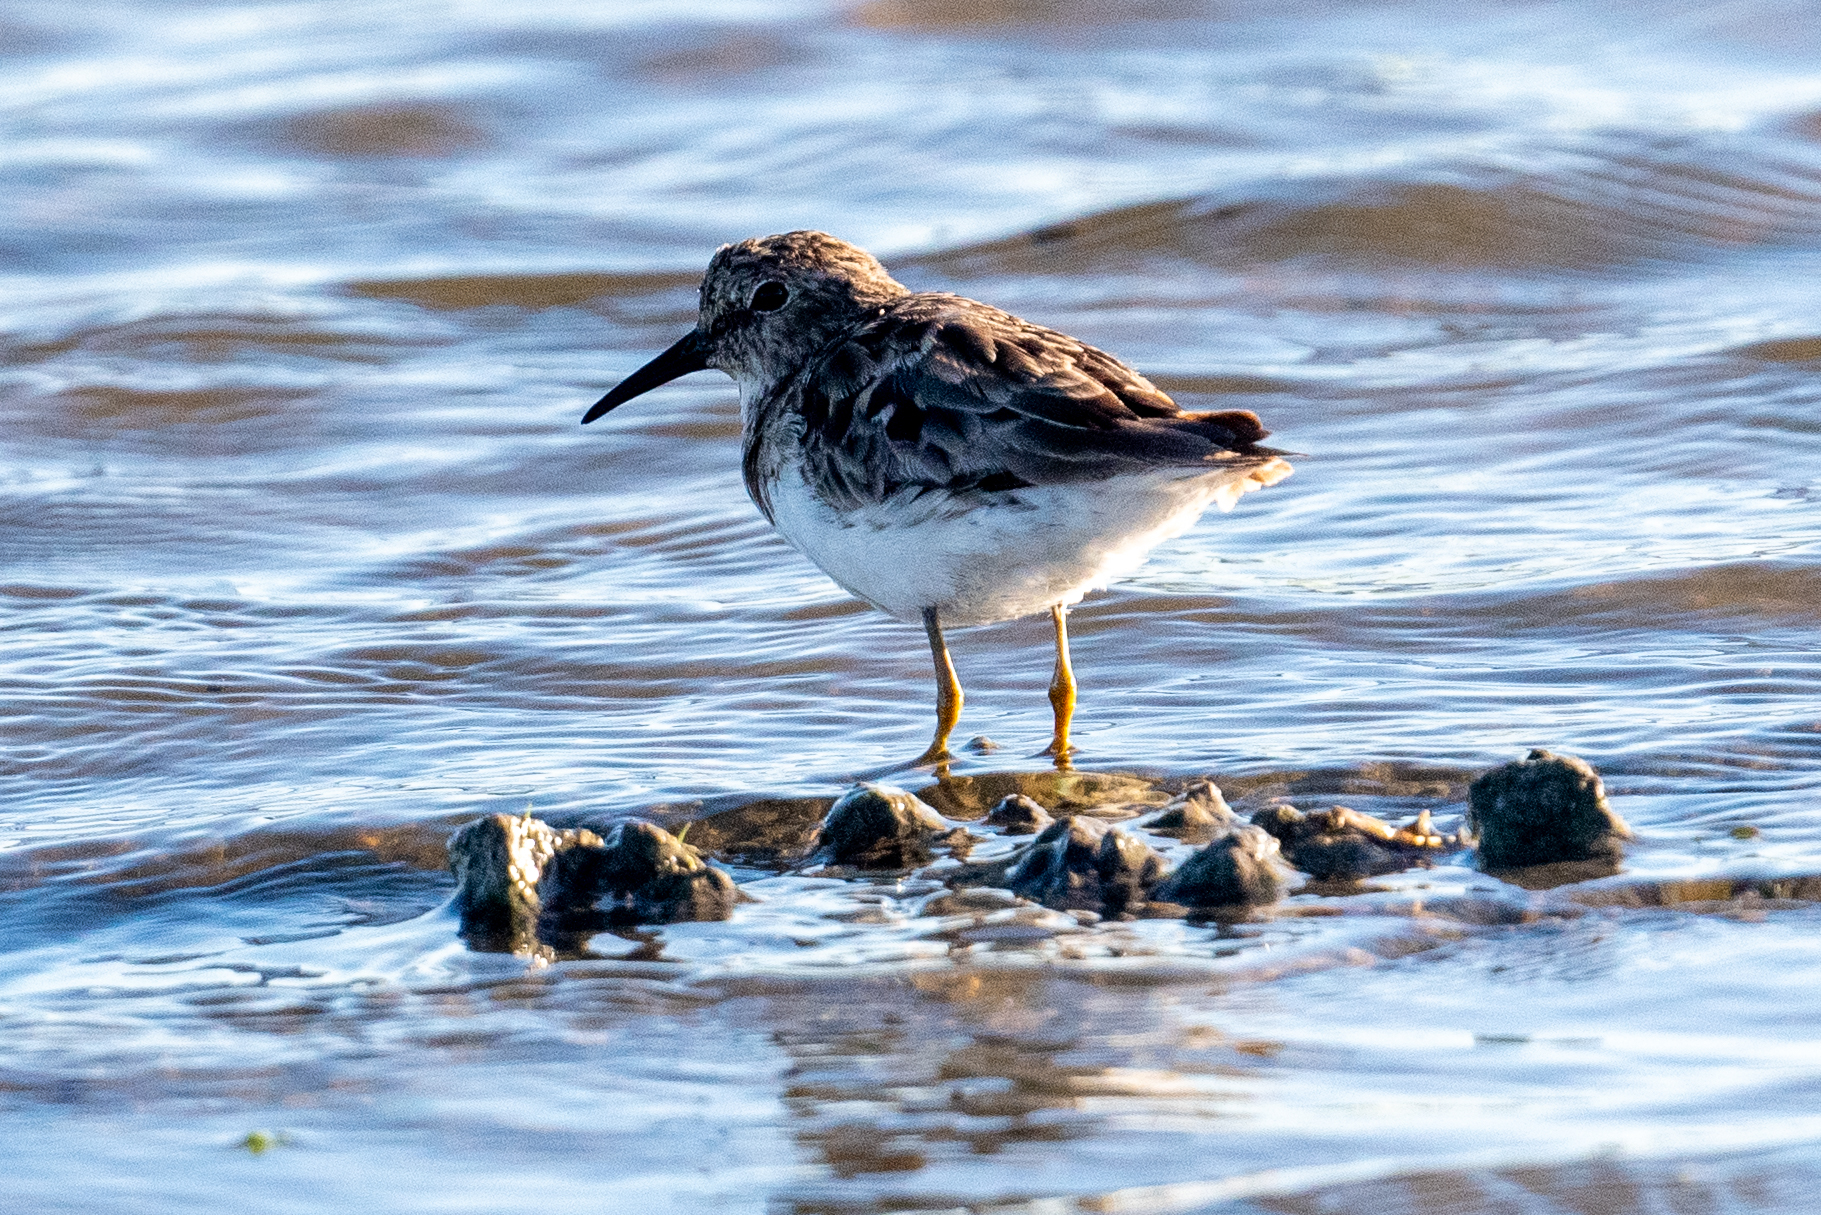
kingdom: Animalia
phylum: Chordata
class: Aves
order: Charadriiformes
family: Scolopacidae
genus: Calidris
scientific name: Calidris minutilla
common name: Least sandpiper
